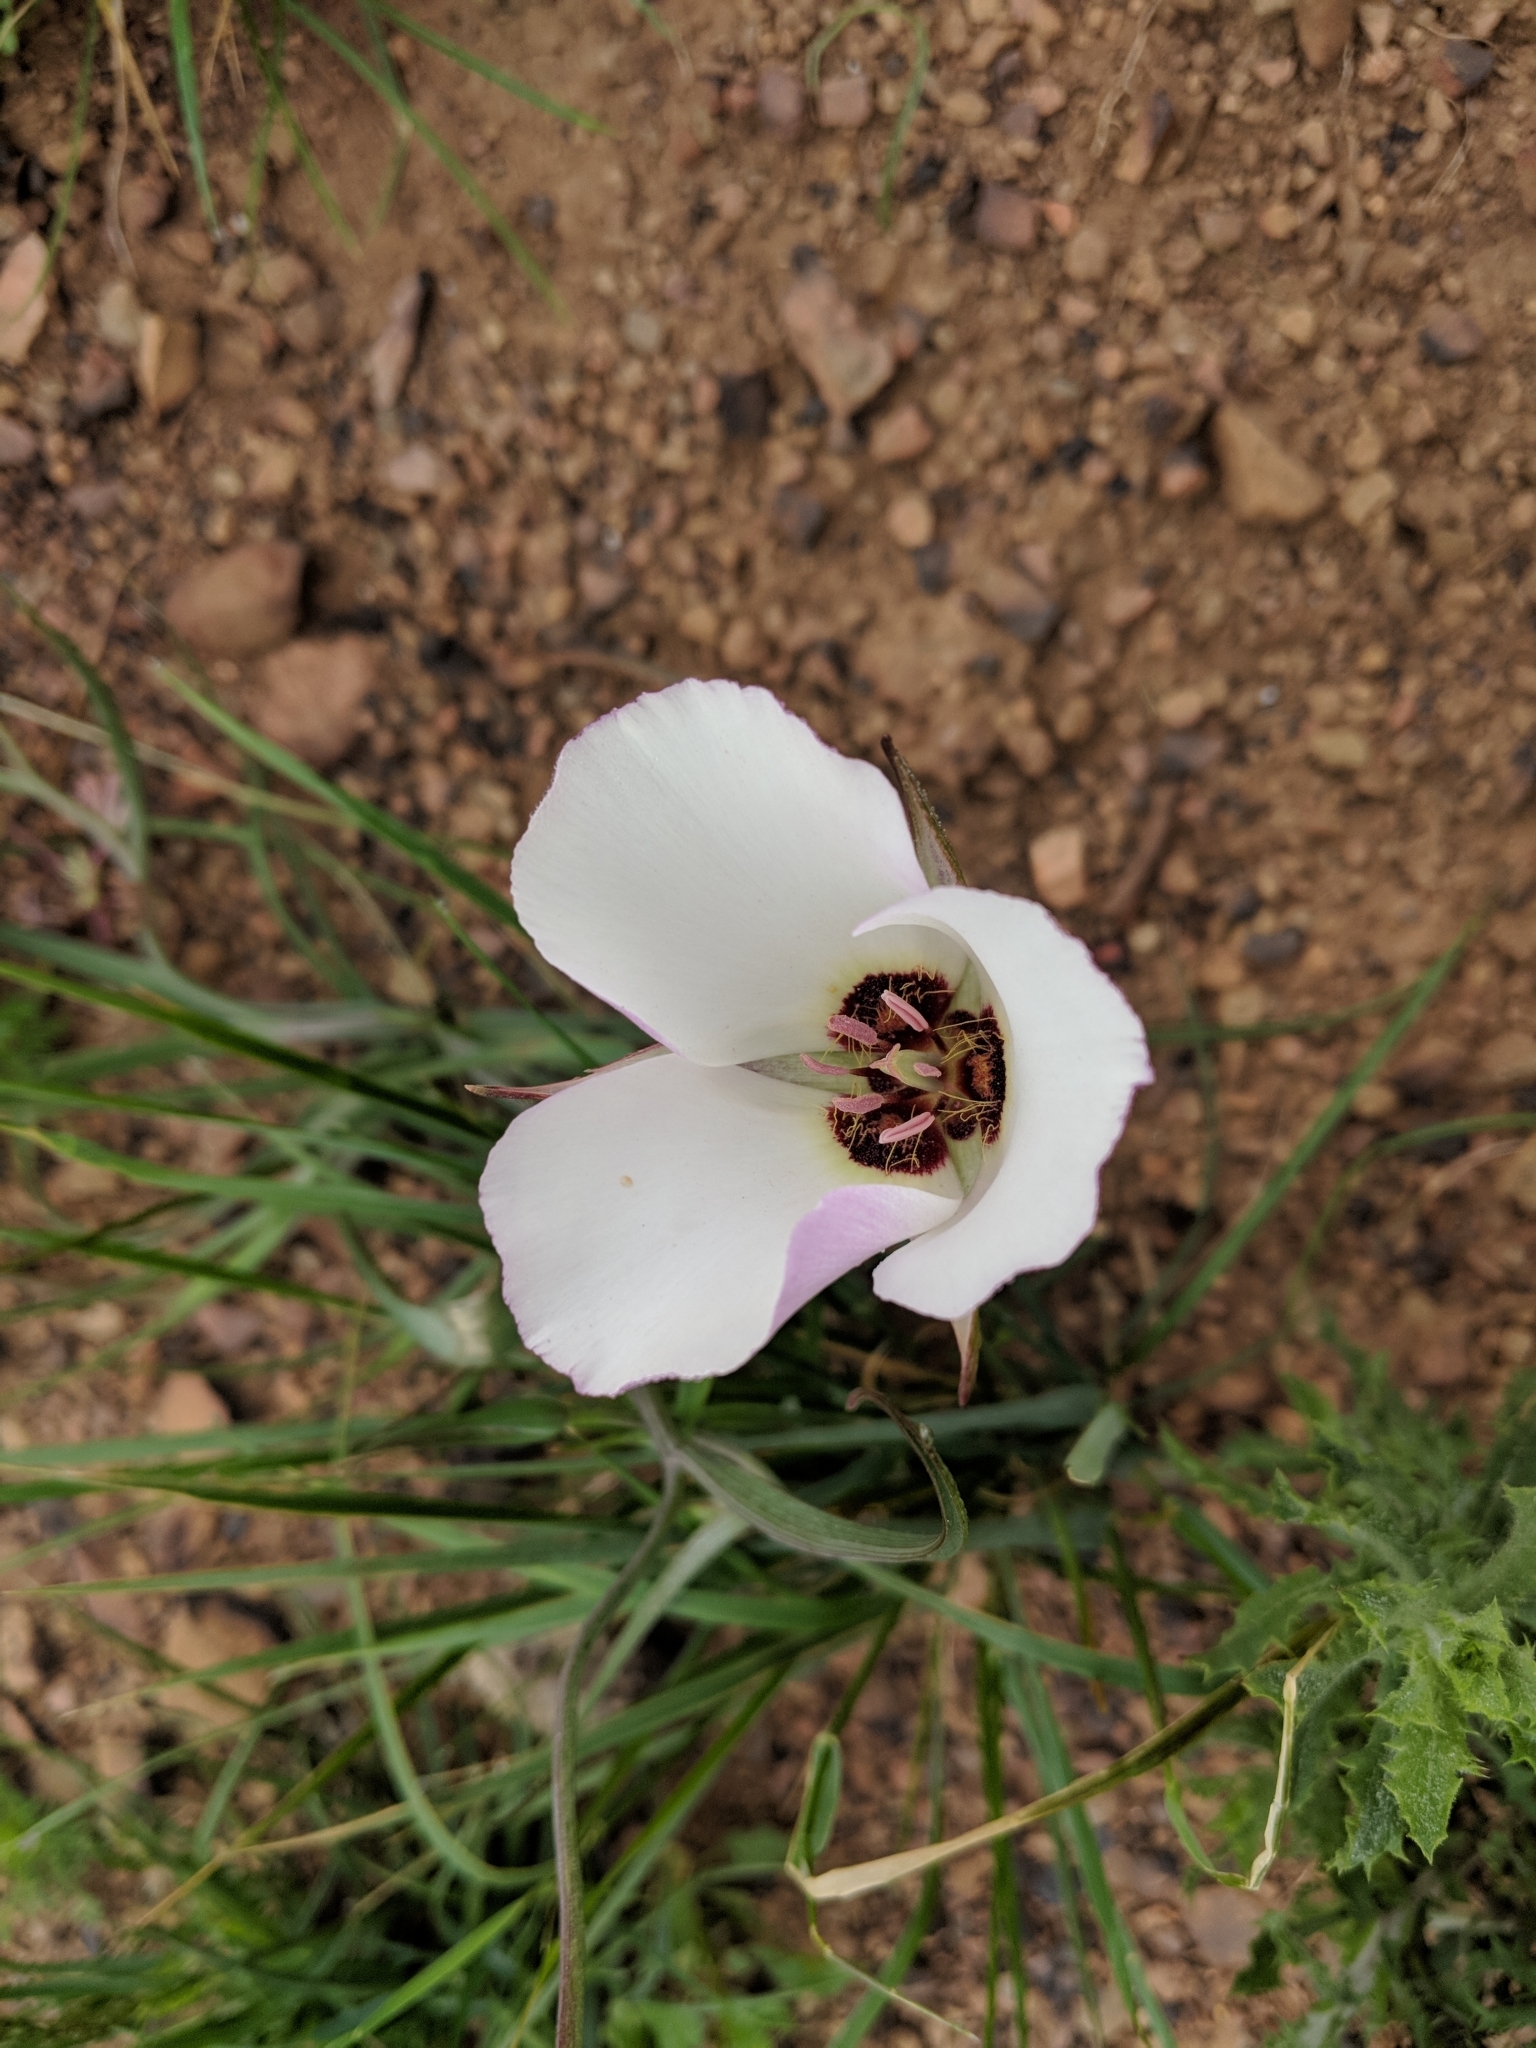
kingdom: Plantae
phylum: Tracheophyta
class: Liliopsida
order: Liliales
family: Liliaceae
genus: Calochortus
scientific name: Calochortus catalinae
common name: Catalina mariposa-lily
